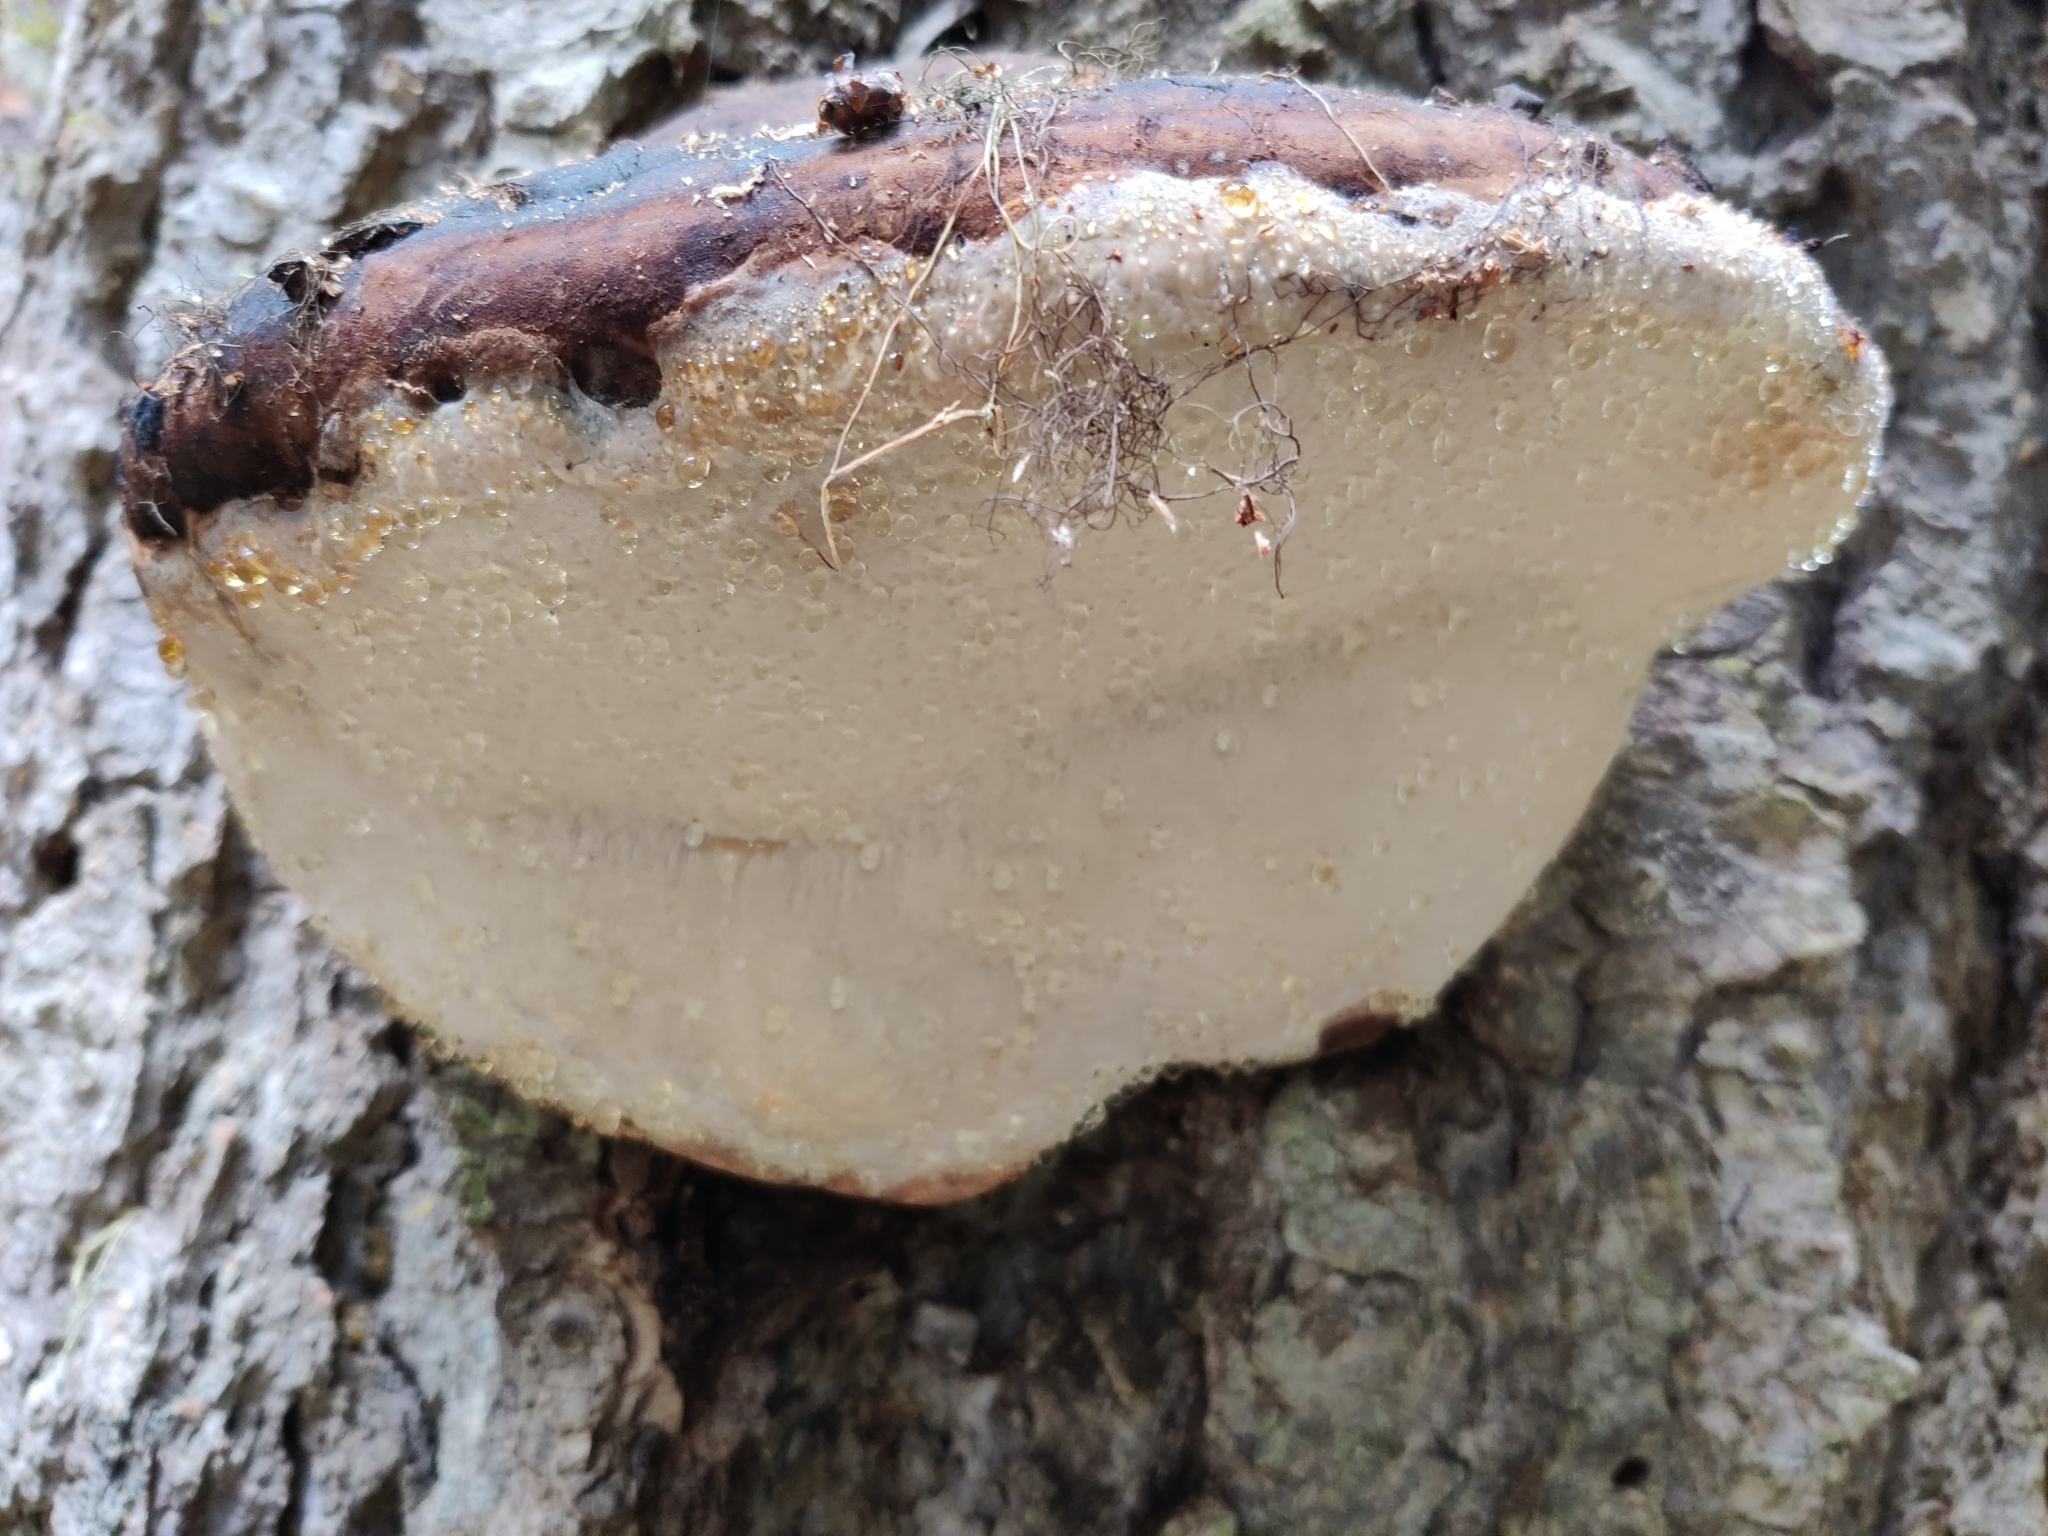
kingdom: Fungi
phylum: Basidiomycota
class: Agaricomycetes
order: Polyporales
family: Fomitopsidaceae
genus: Fomitopsis
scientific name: Fomitopsis mounceae
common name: Northern red belt
